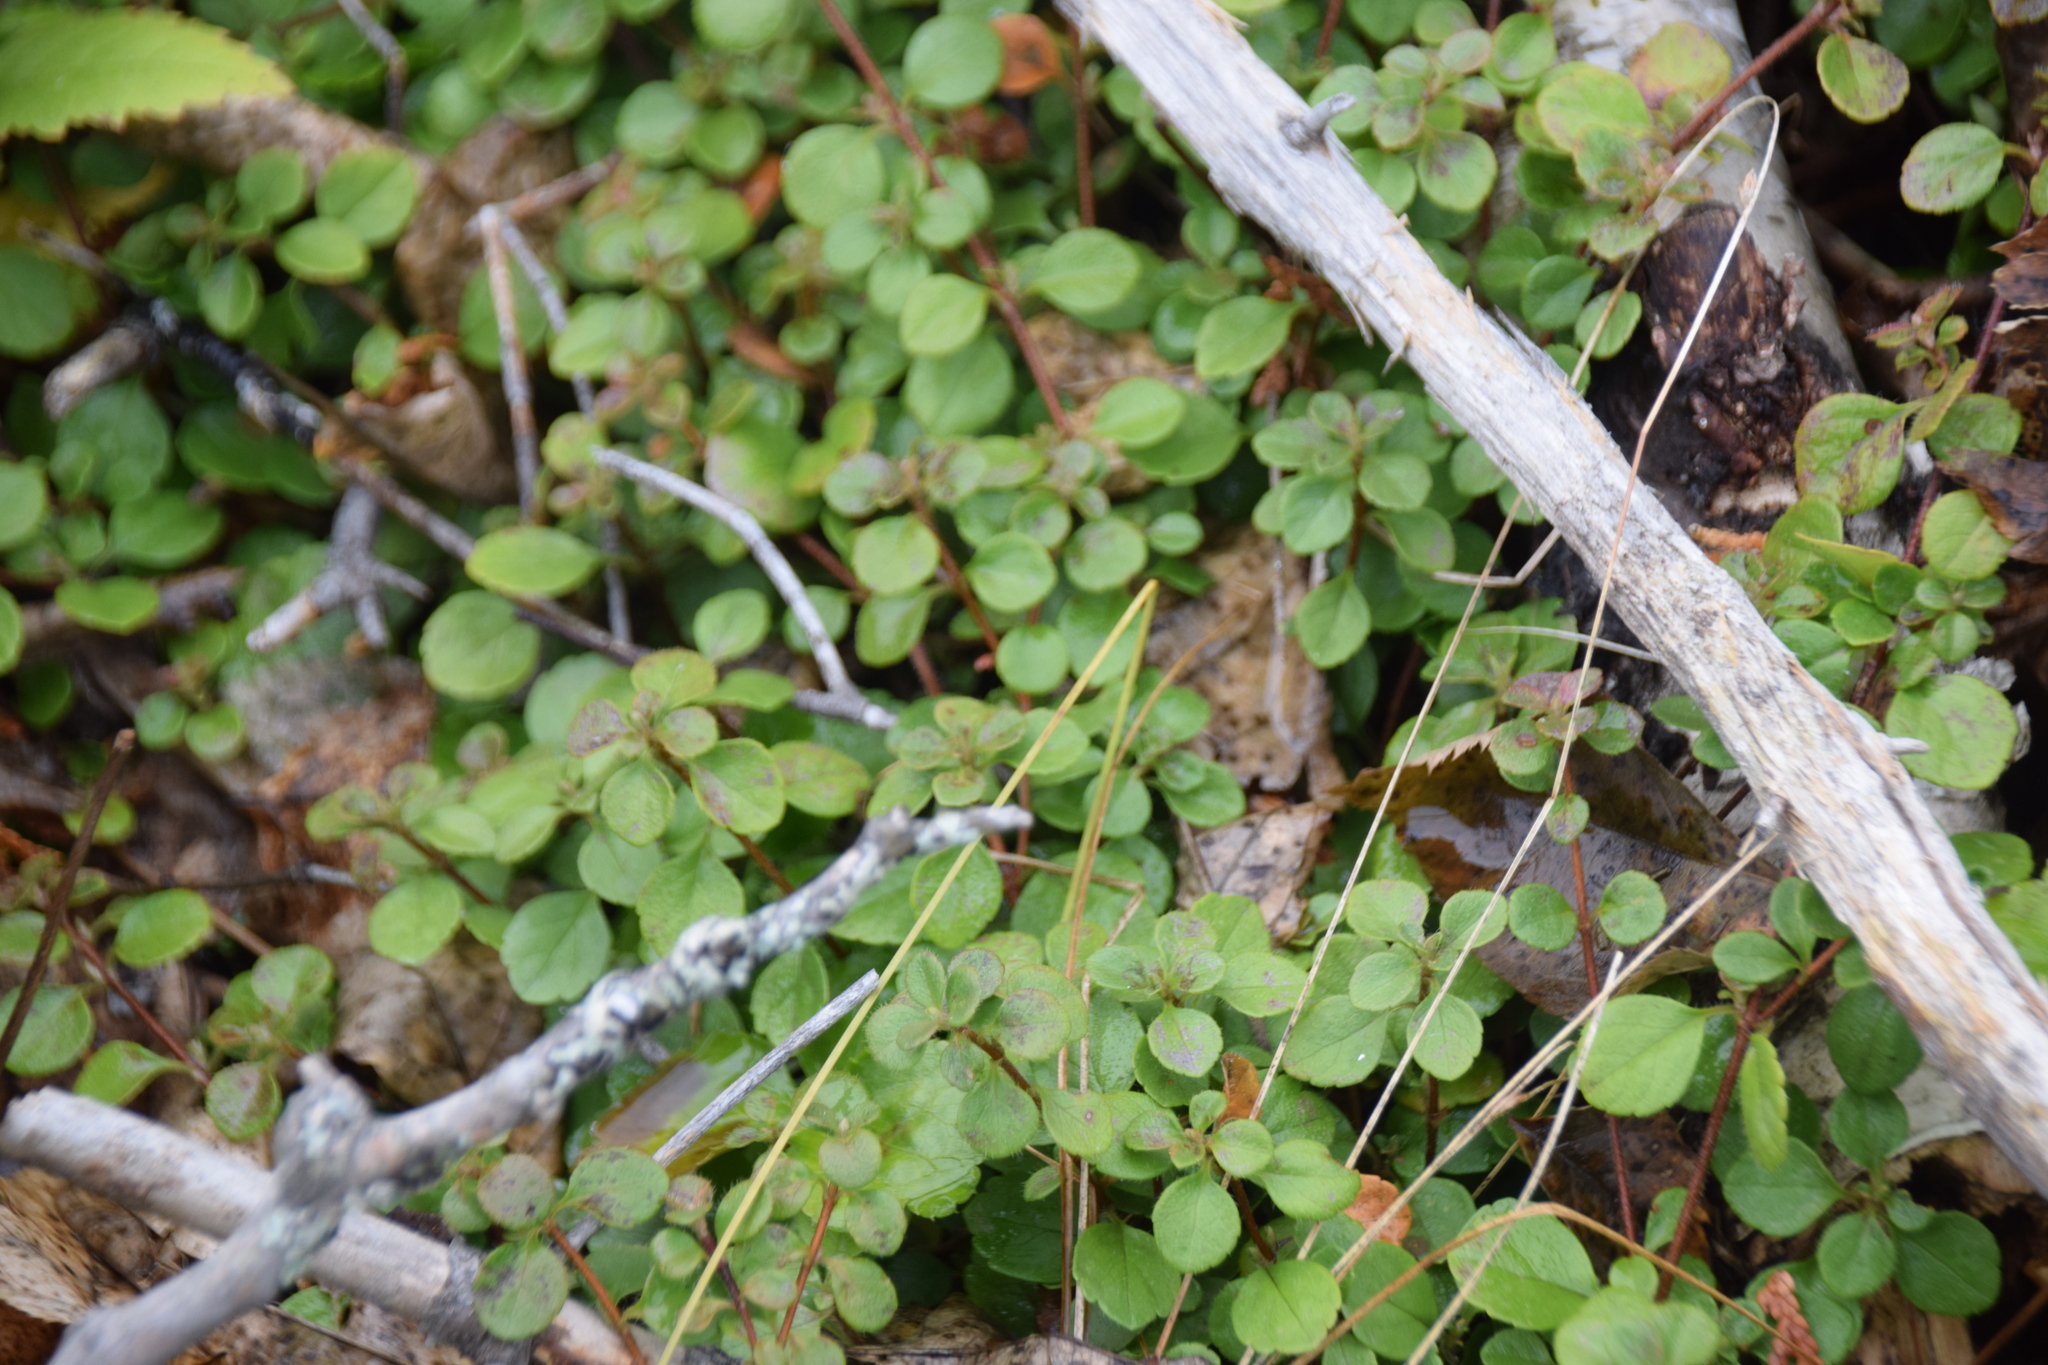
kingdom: Plantae
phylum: Tracheophyta
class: Magnoliopsida
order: Dipsacales
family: Caprifoliaceae
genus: Linnaea
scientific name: Linnaea borealis
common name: Twinflower
